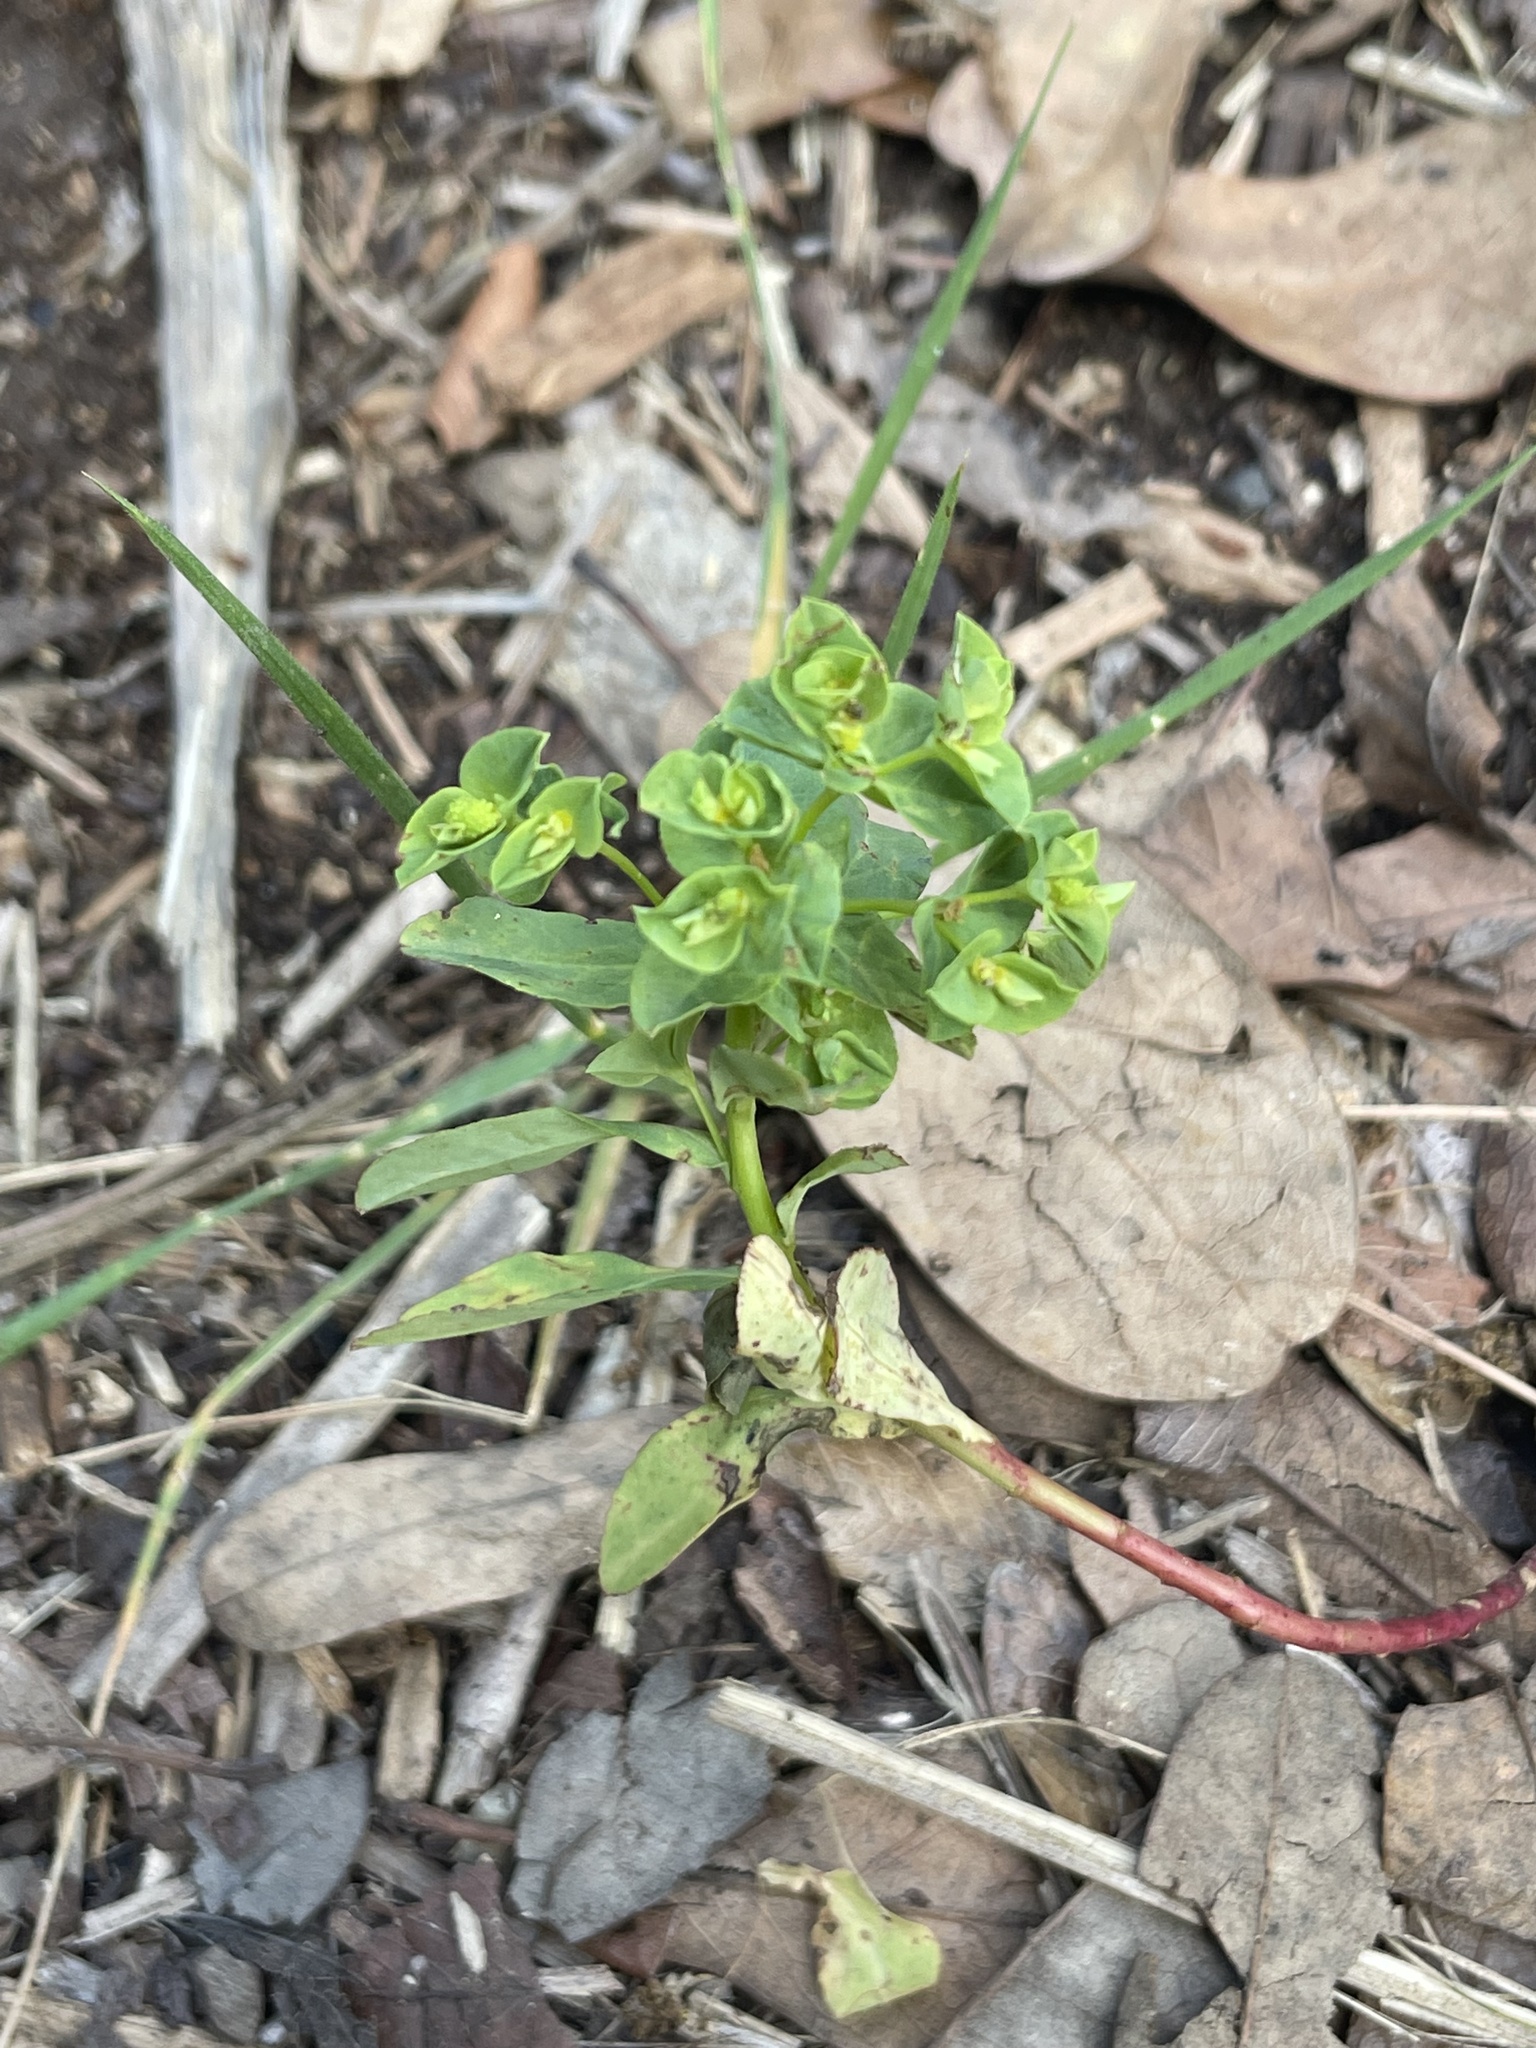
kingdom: Plantae
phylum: Tracheophyta
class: Magnoliopsida
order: Malpighiales
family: Euphorbiaceae
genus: Euphorbia
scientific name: Euphorbia spathulata
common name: Blunt spurge
